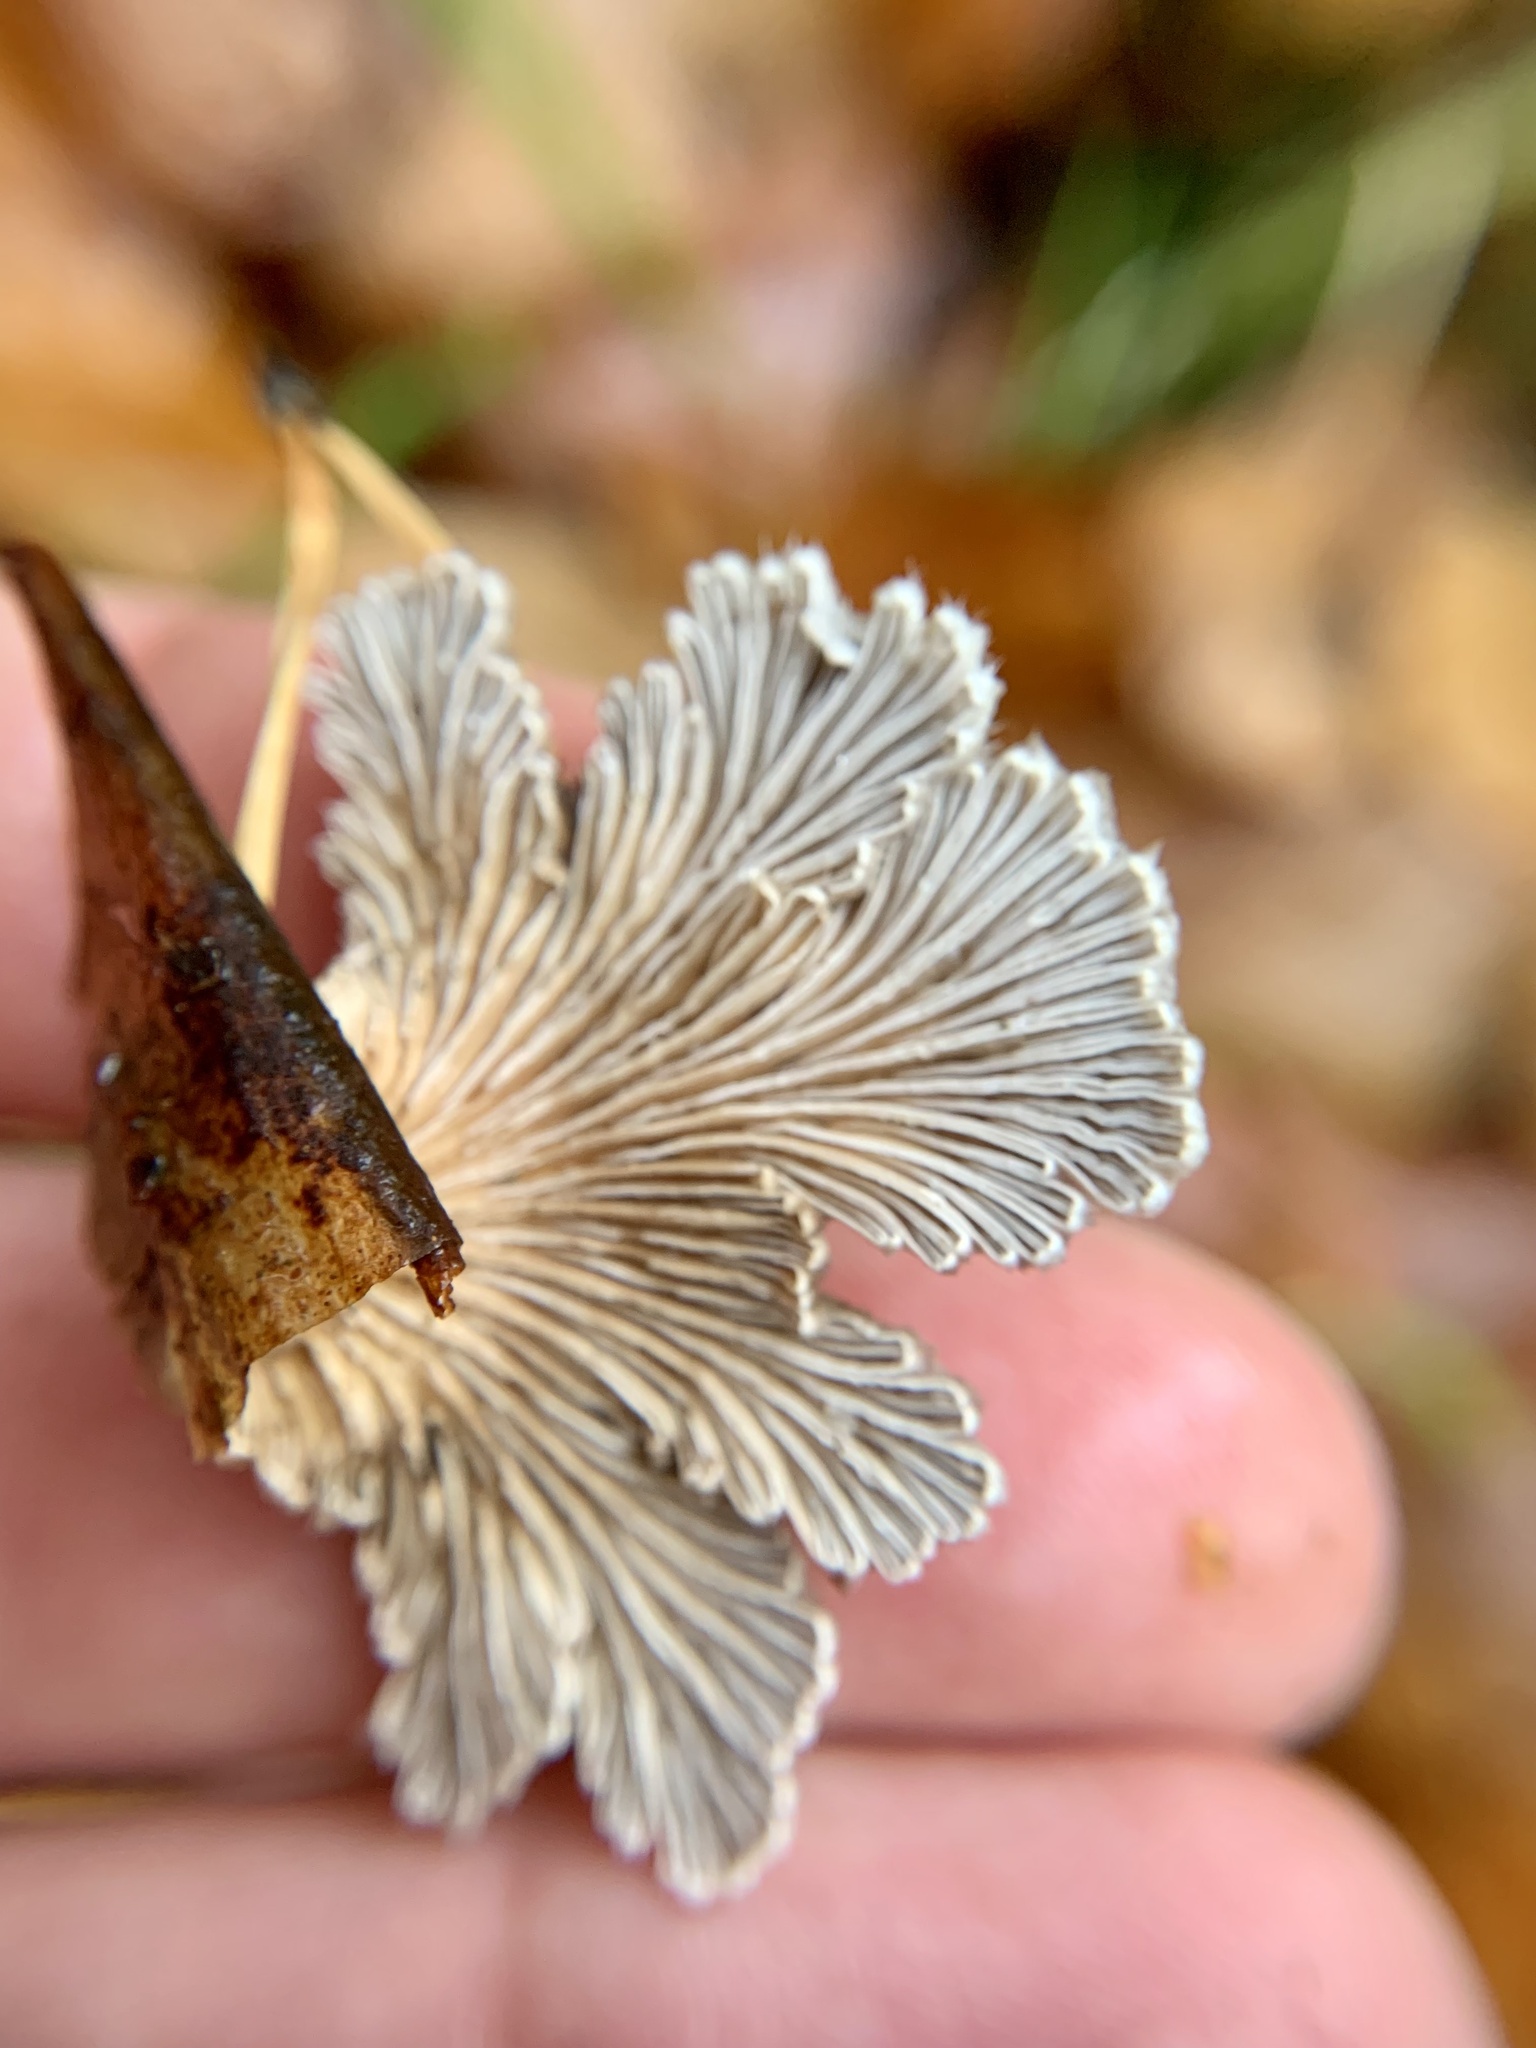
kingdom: Fungi
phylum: Basidiomycota
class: Agaricomycetes
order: Agaricales
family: Schizophyllaceae
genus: Schizophyllum
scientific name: Schizophyllum commune
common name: Common porecrust
